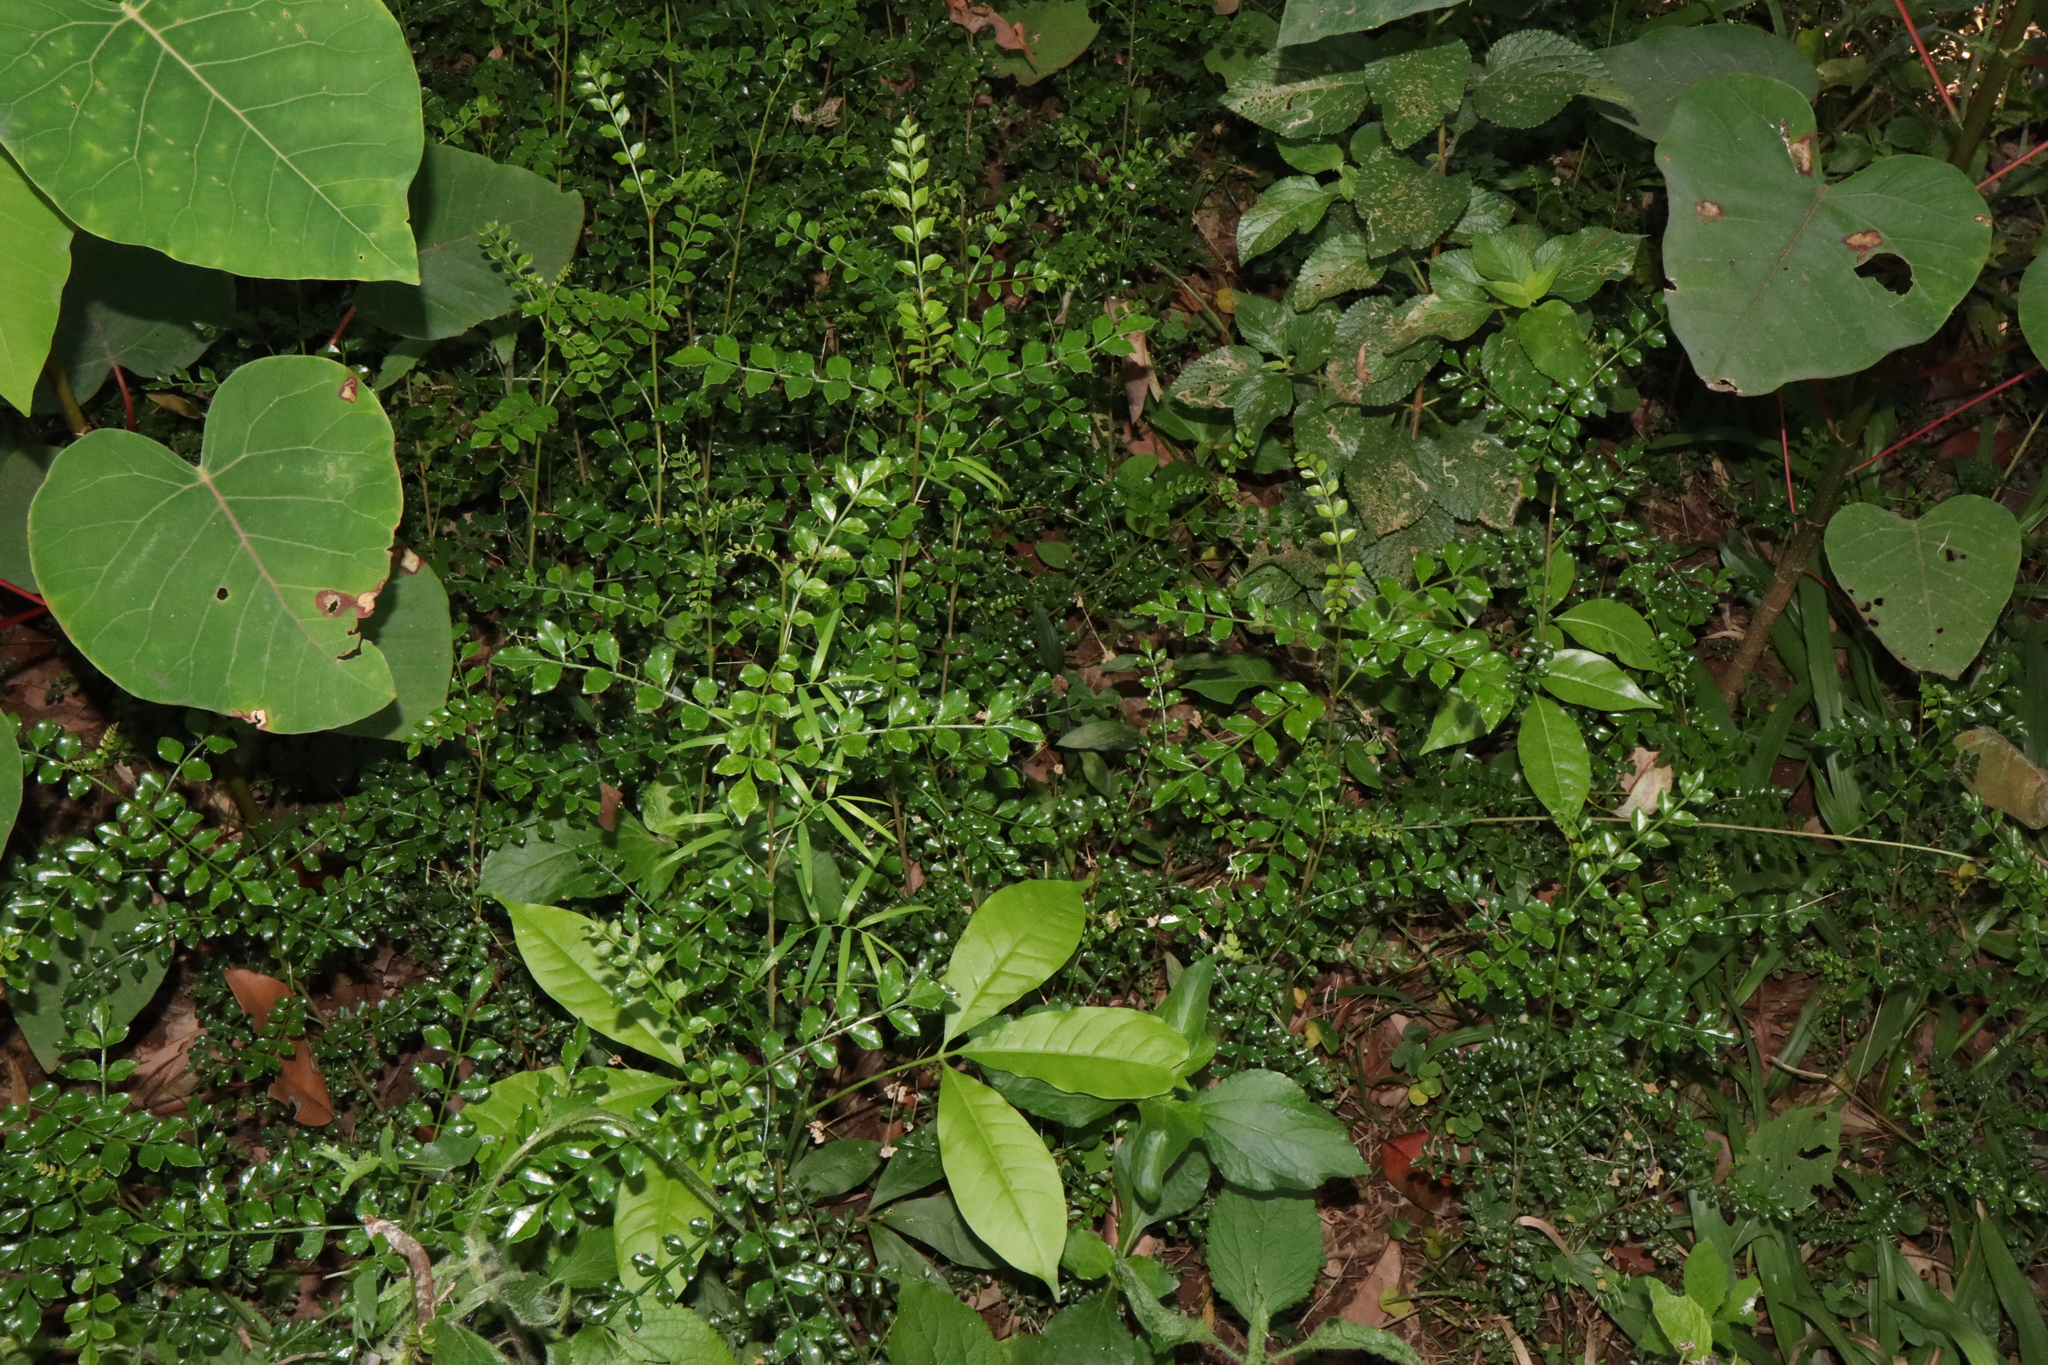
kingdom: Plantae
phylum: Tracheophyta
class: Magnoliopsida
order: Lamiales
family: Oleaceae
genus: Fraxinus
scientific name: Fraxinus griffithii
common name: Himalayan ash
